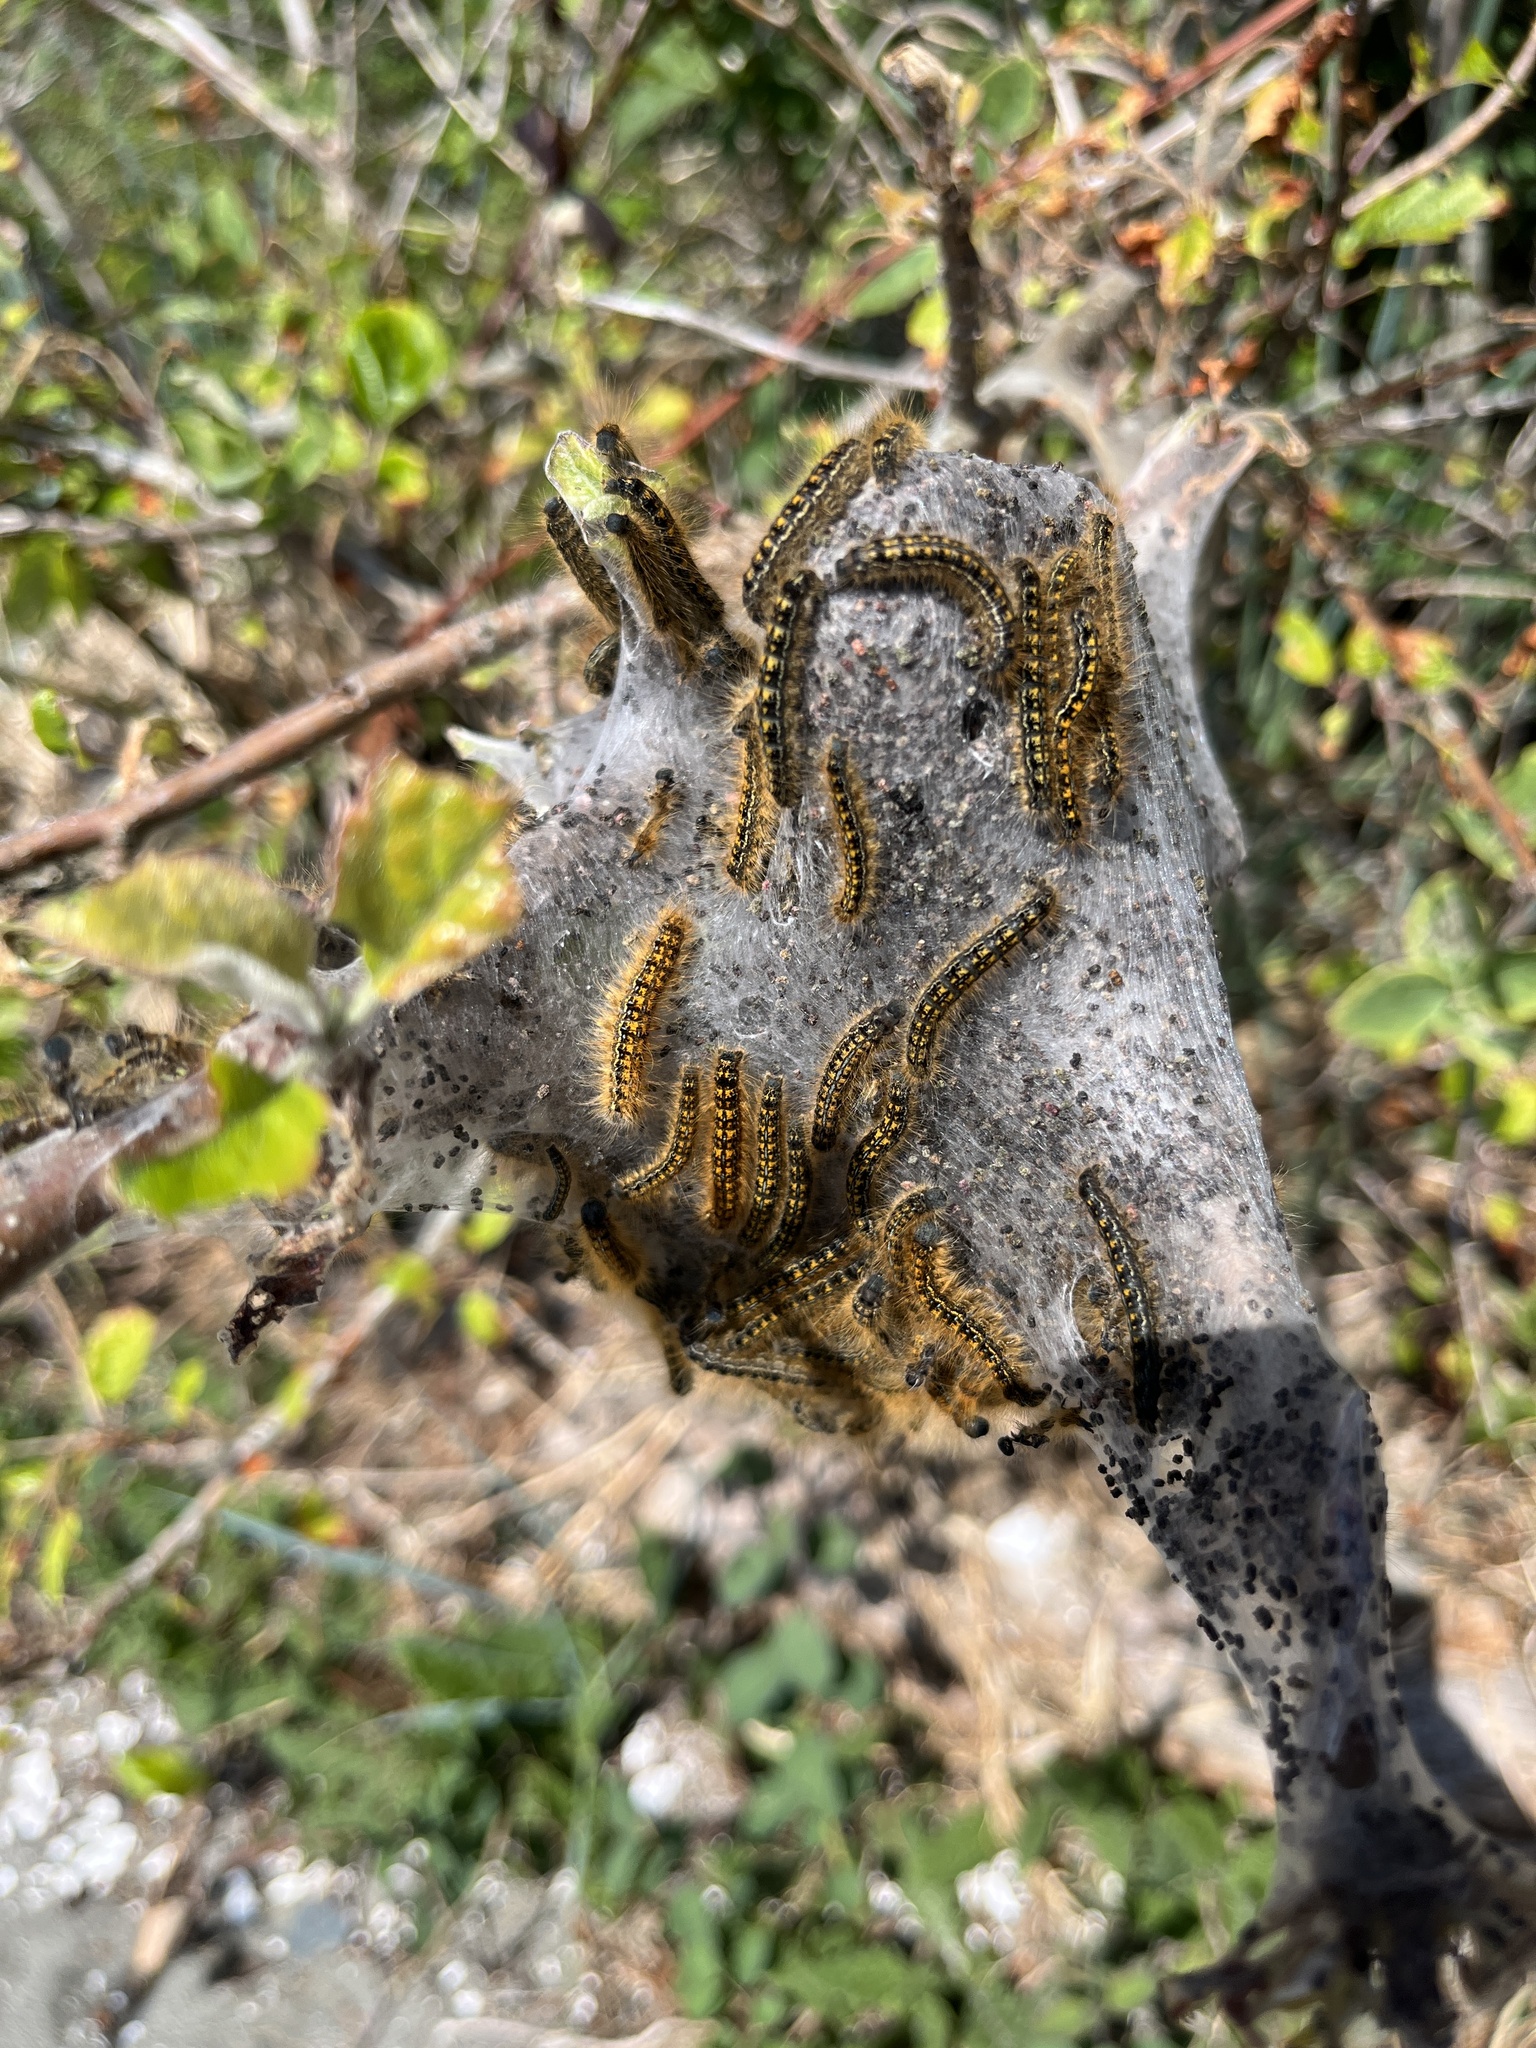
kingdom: Animalia
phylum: Arthropoda
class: Insecta
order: Lepidoptera
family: Lasiocampidae
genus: Malacosoma
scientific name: Malacosoma californica
